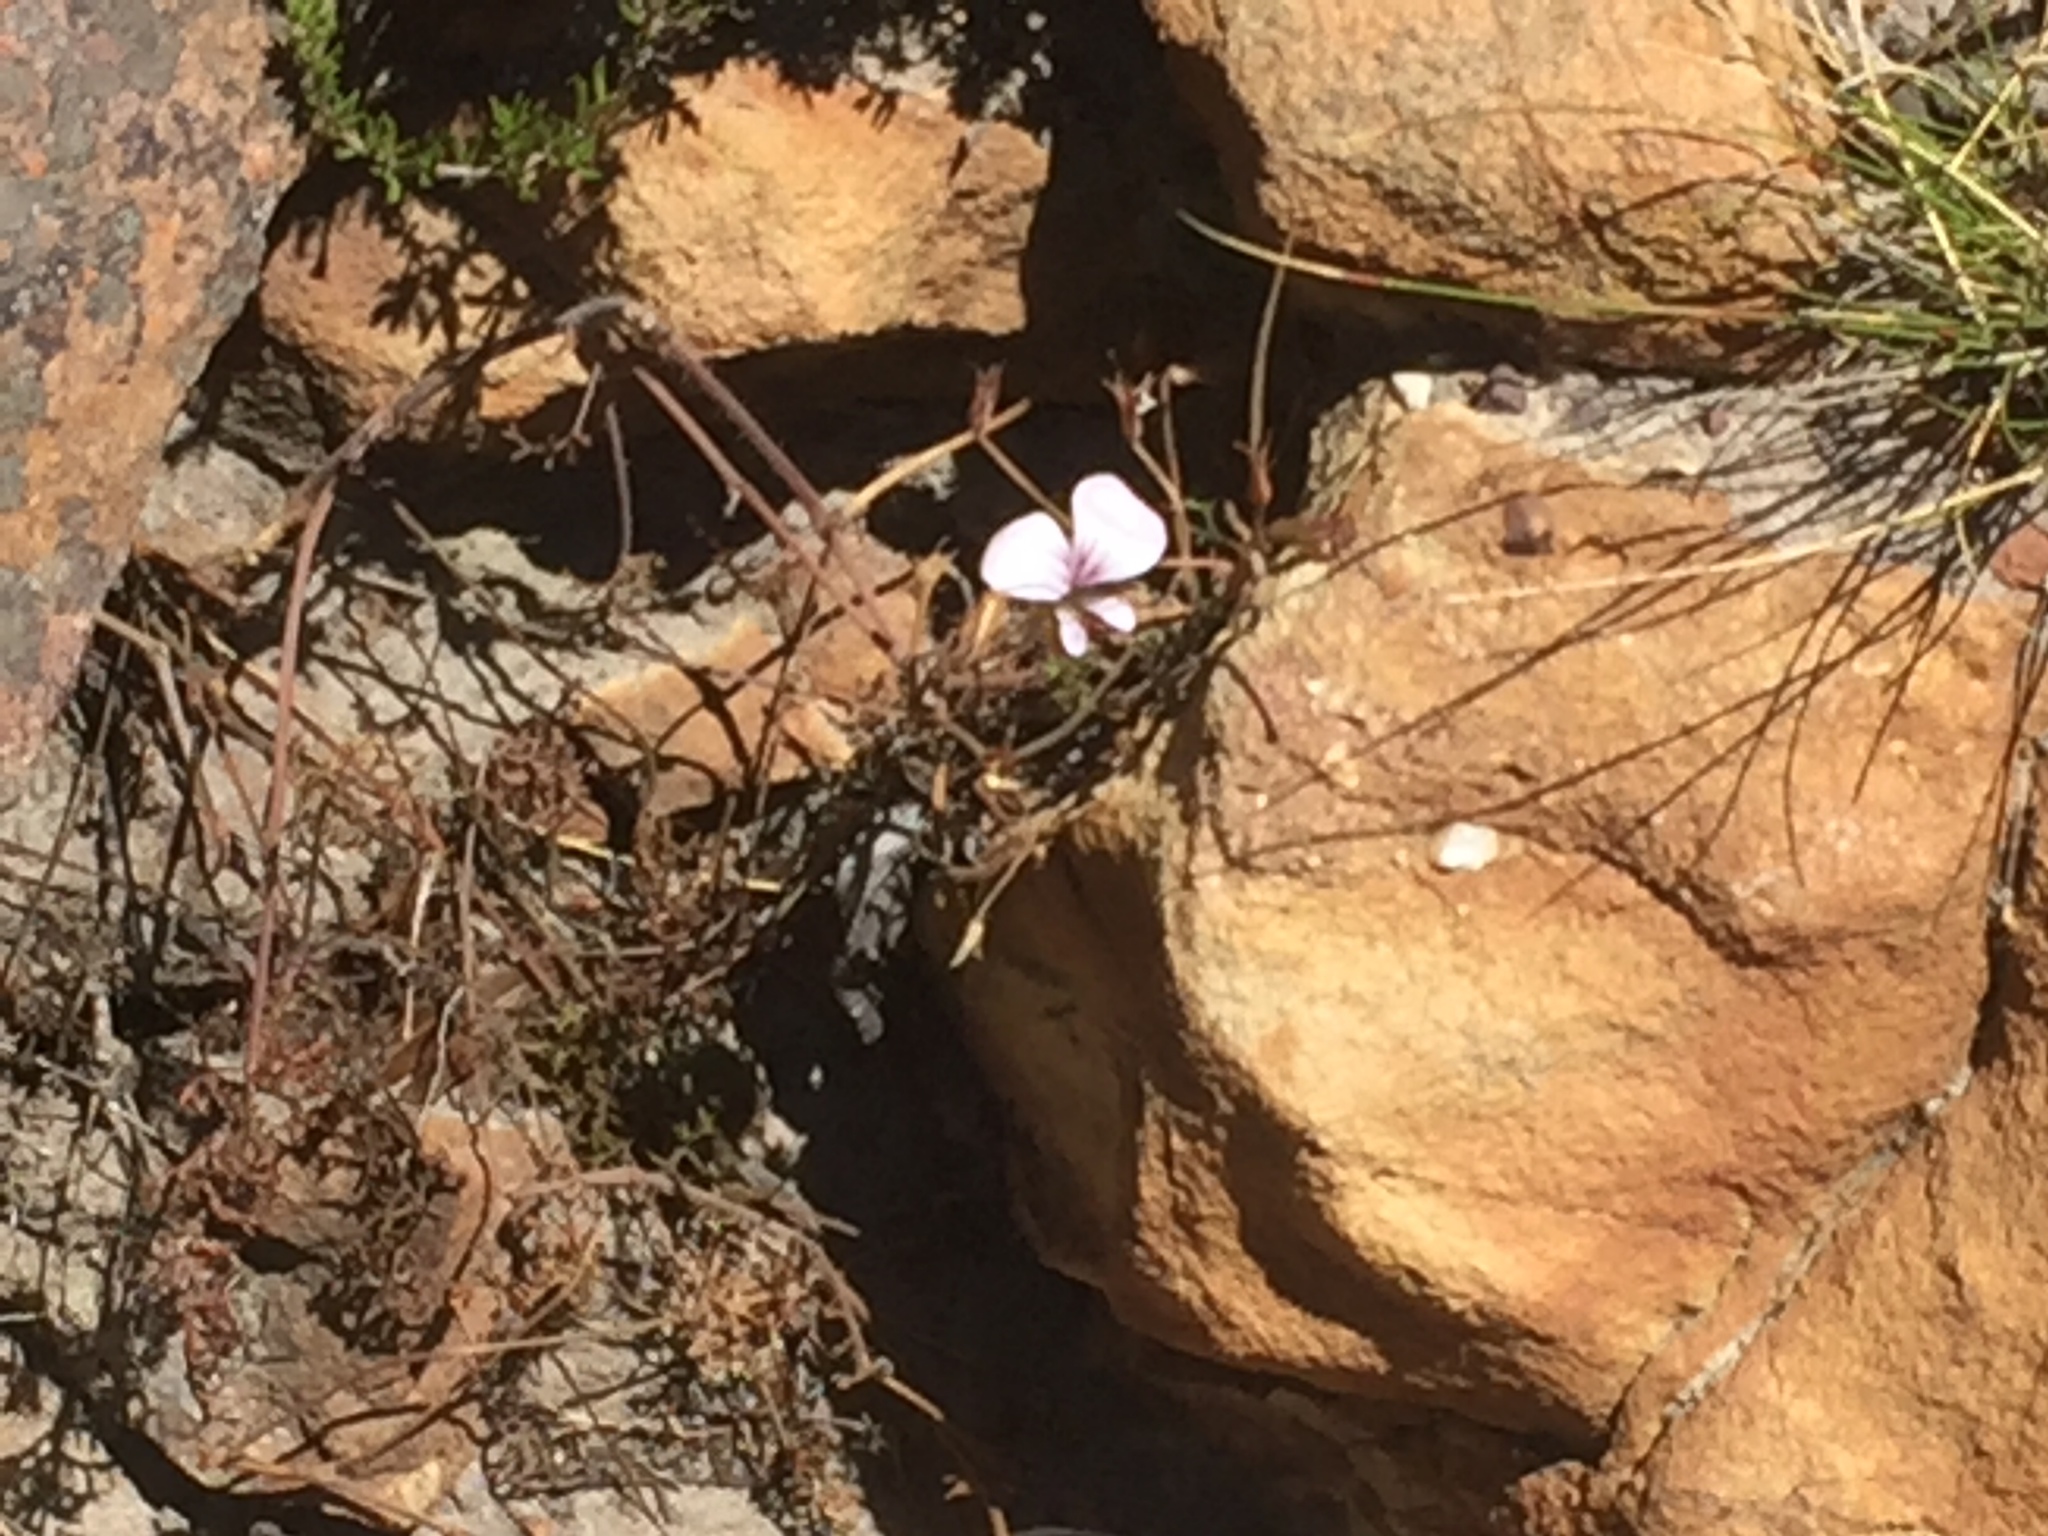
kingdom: Plantae
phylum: Tracheophyta
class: Magnoliopsida
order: Geraniales
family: Geraniaceae
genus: Pelargonium
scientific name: Pelargonium longicaule
